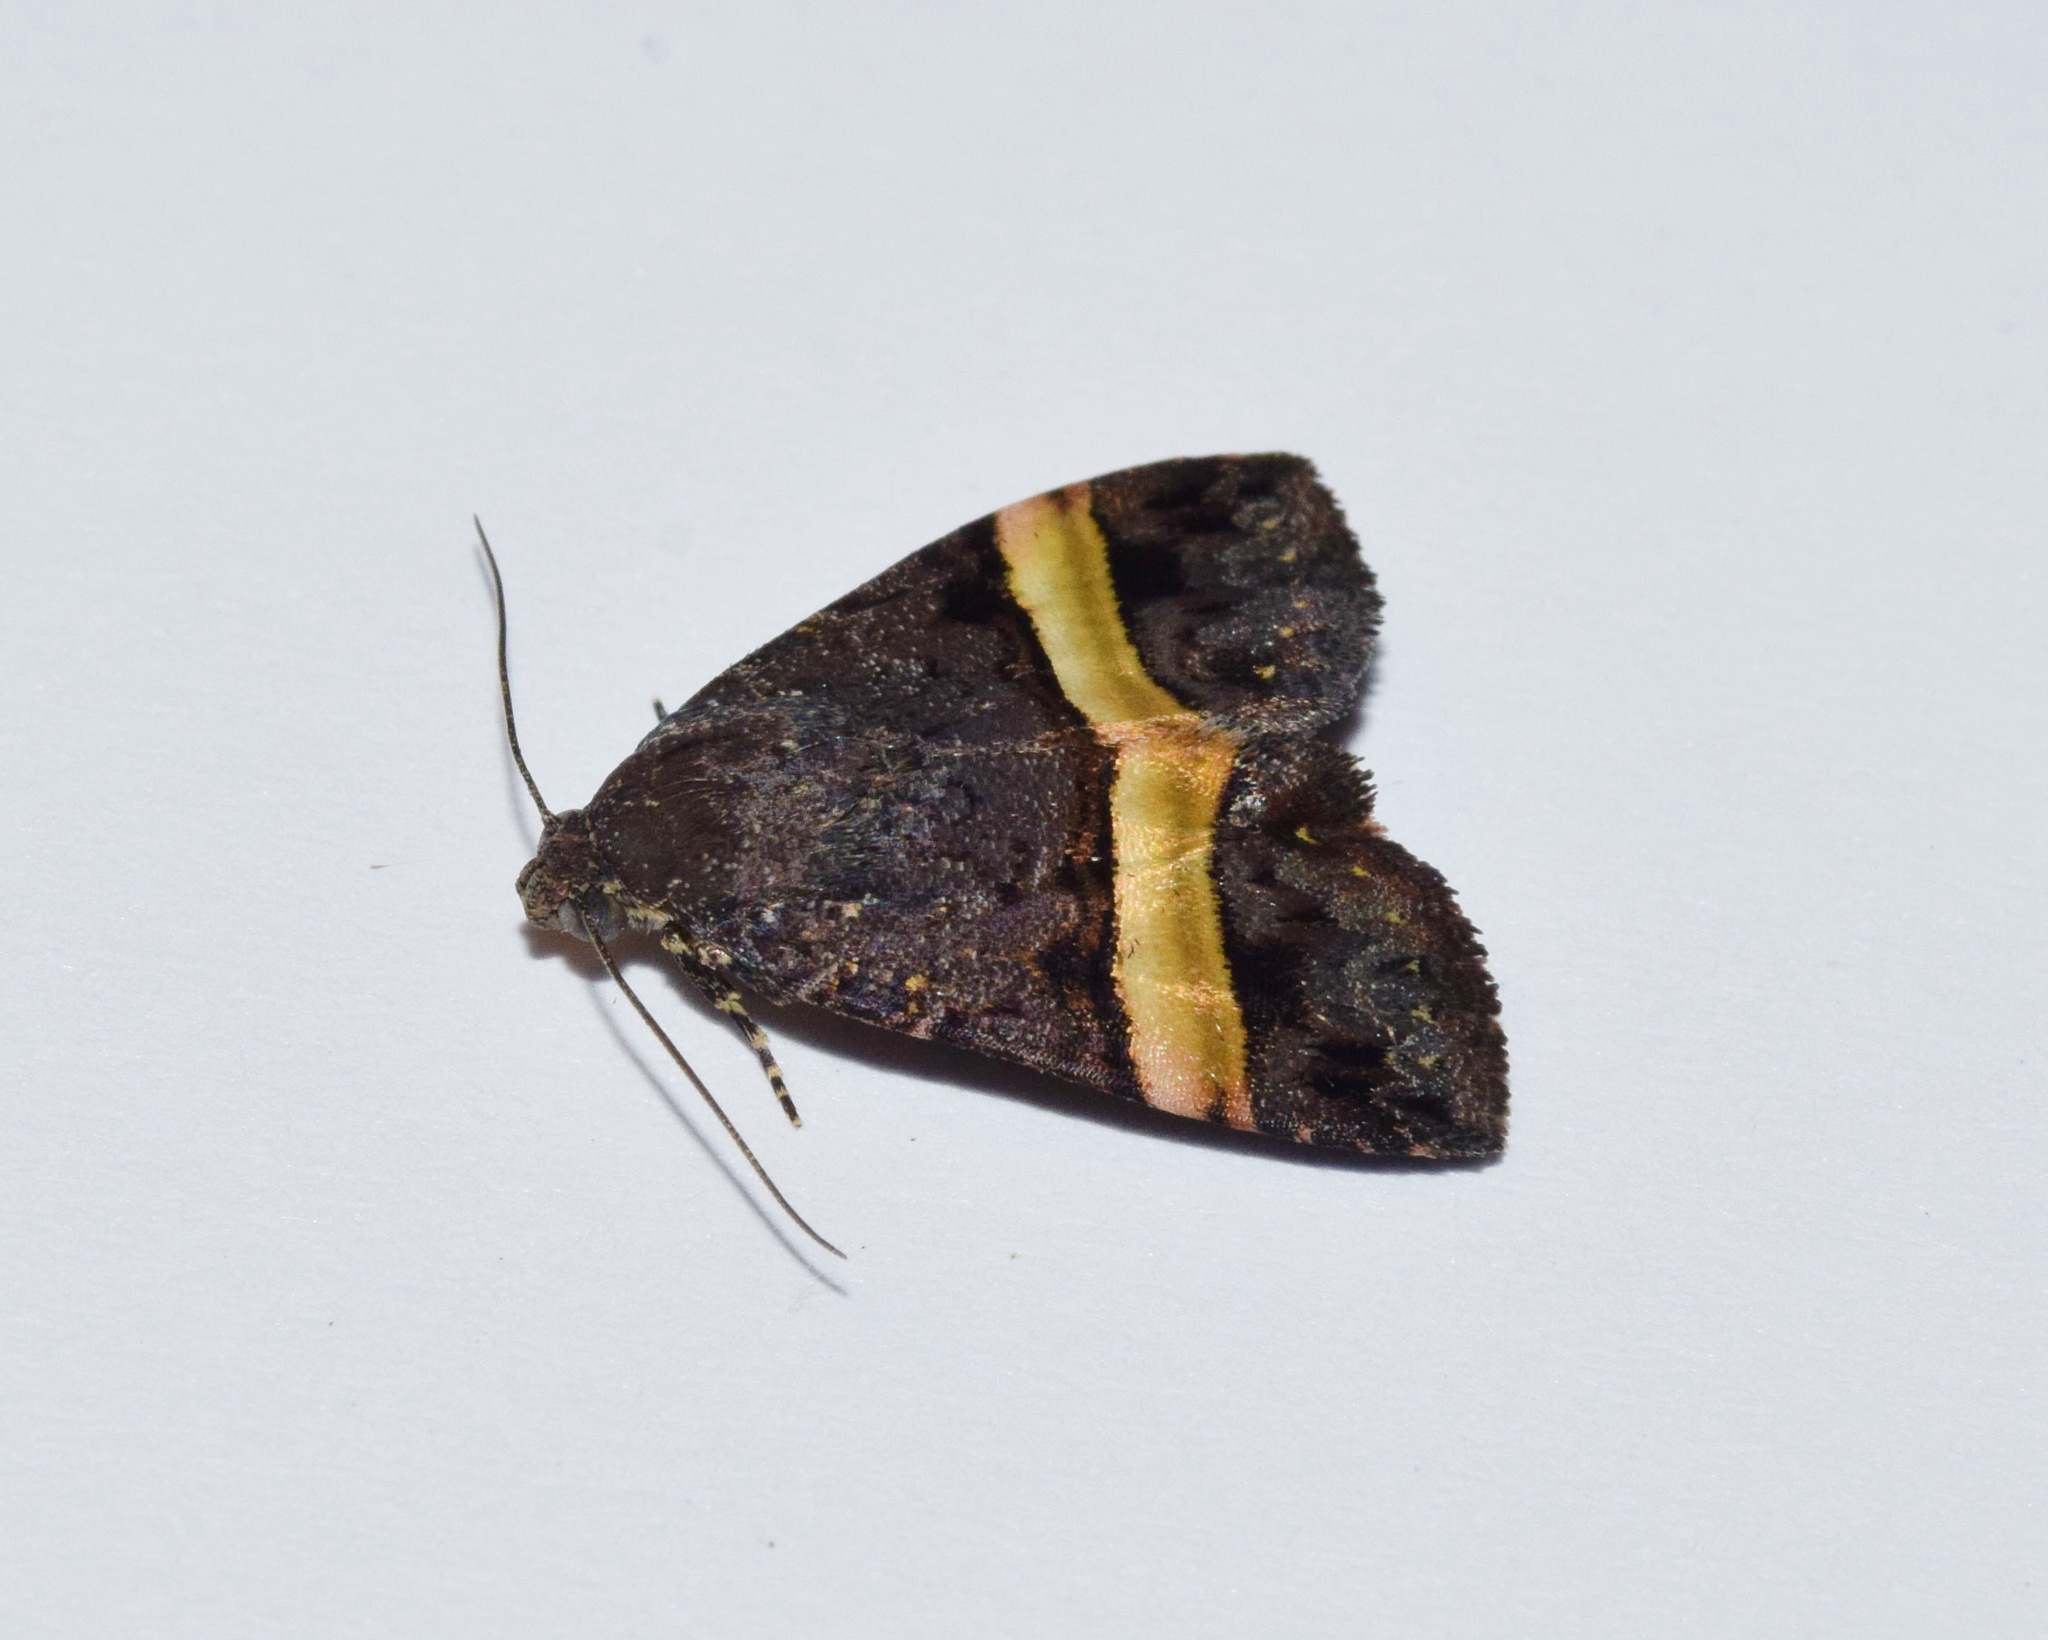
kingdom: Animalia
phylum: Arthropoda
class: Insecta
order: Lepidoptera
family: Noctuidae
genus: Ozarba
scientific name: Ozarba abscissa
